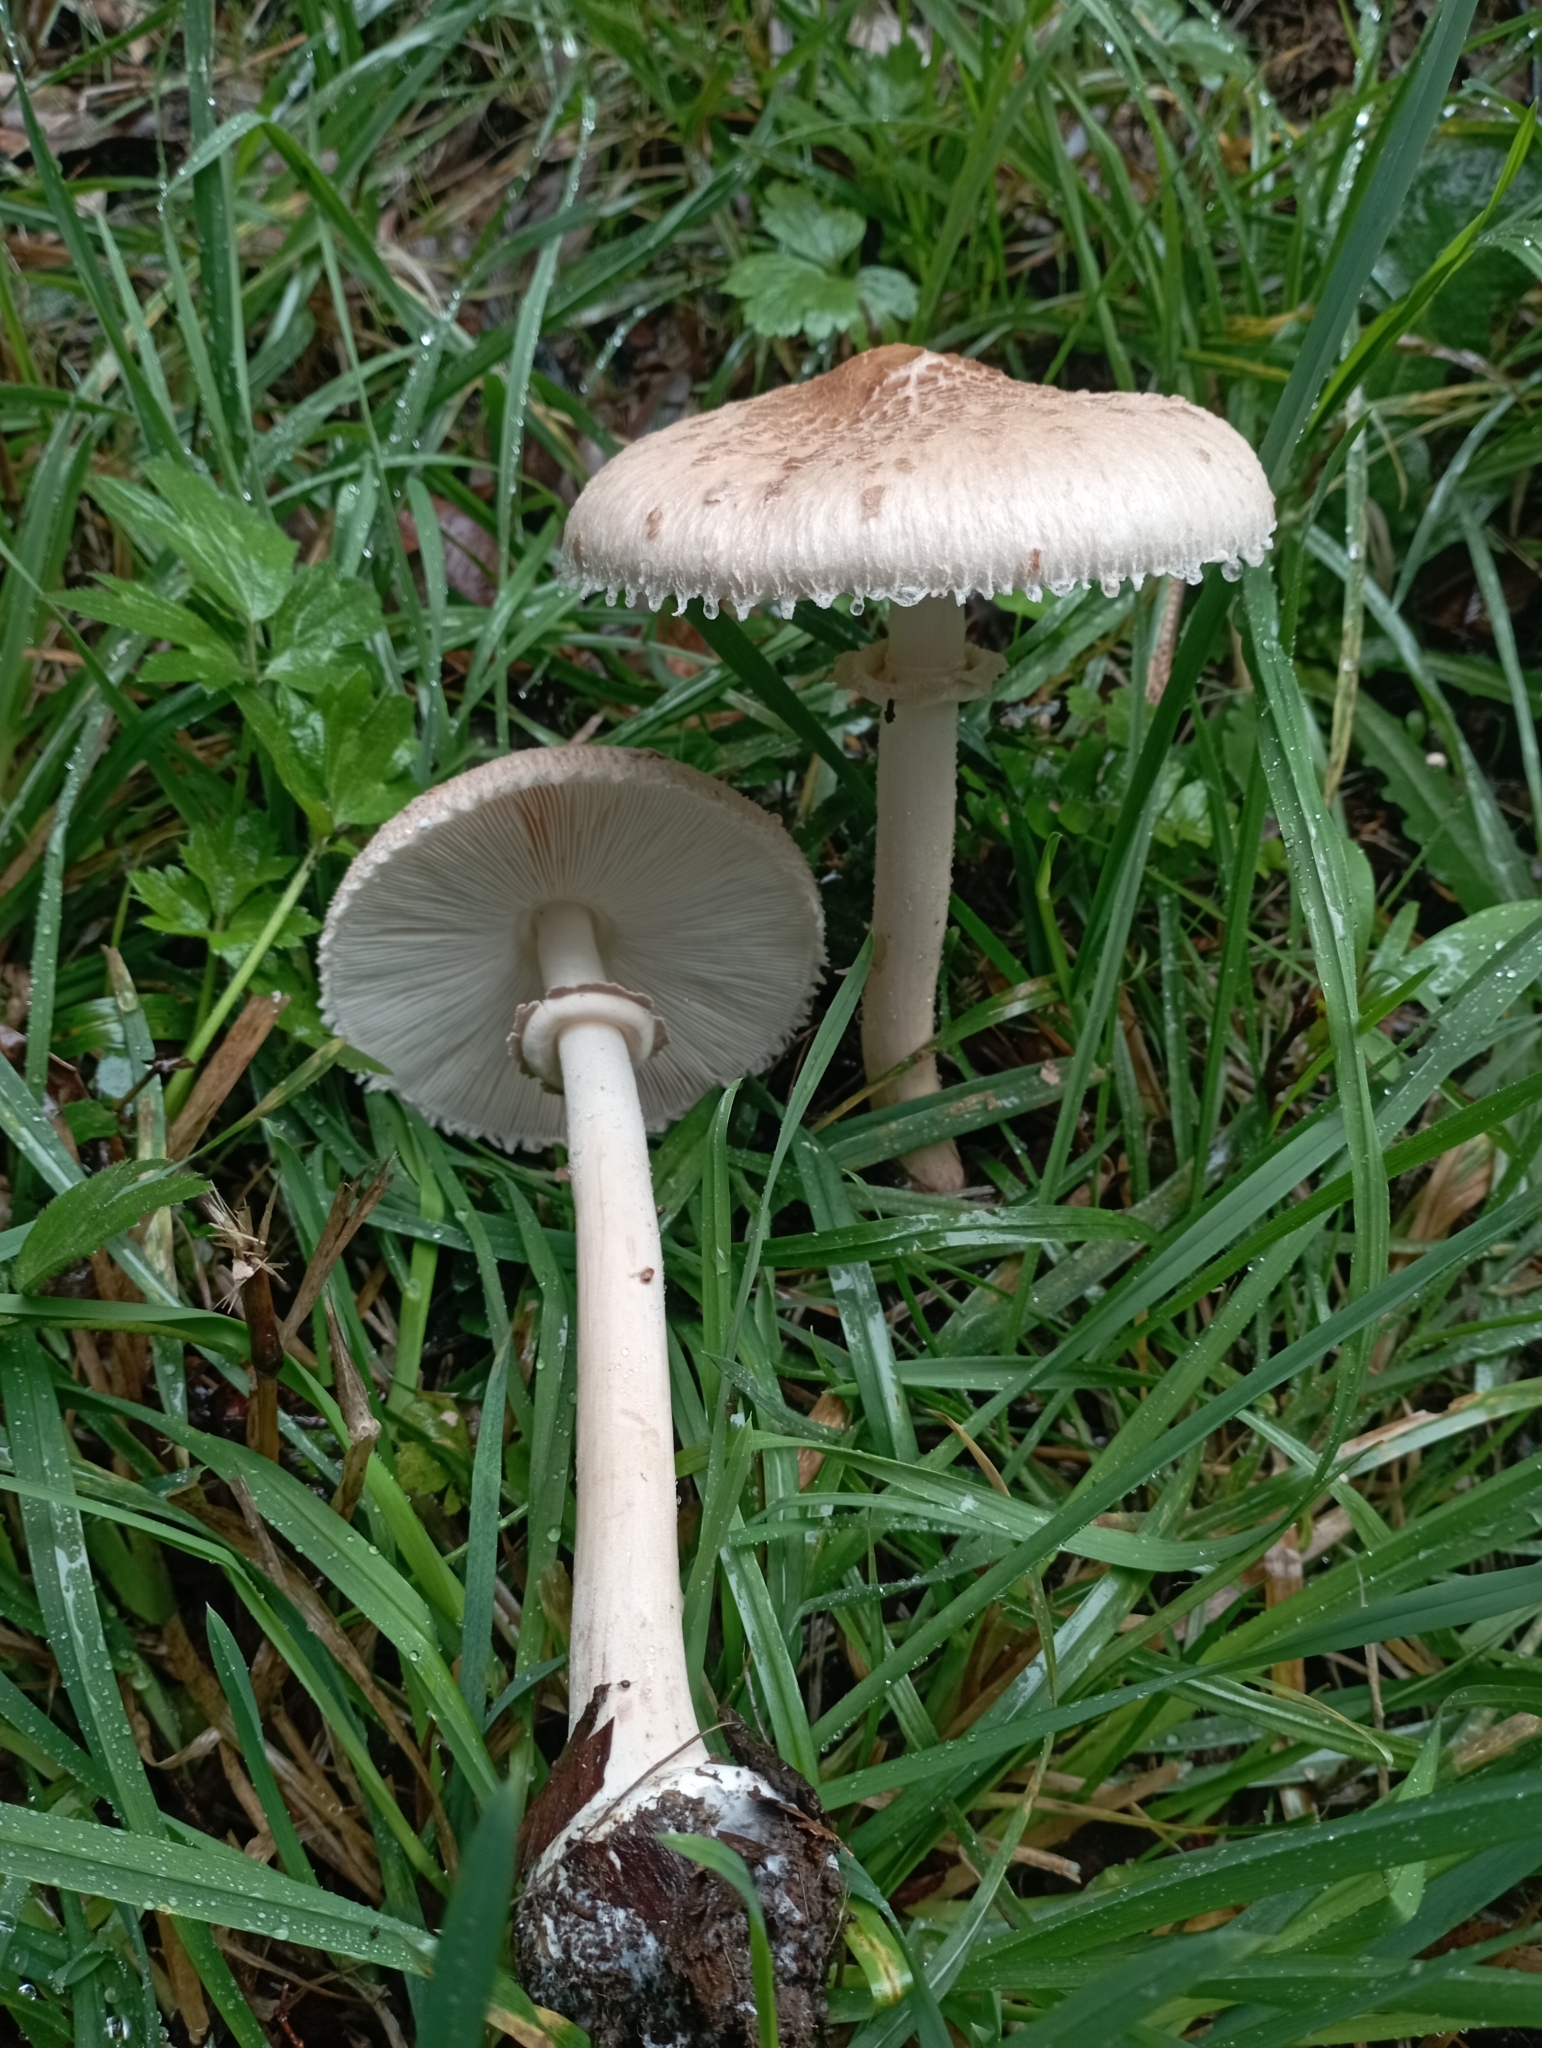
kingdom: Fungi
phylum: Basidiomycota
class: Agaricomycetes
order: Agaricales
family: Agaricaceae
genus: Macrolepiota
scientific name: Macrolepiota bonaerensis
